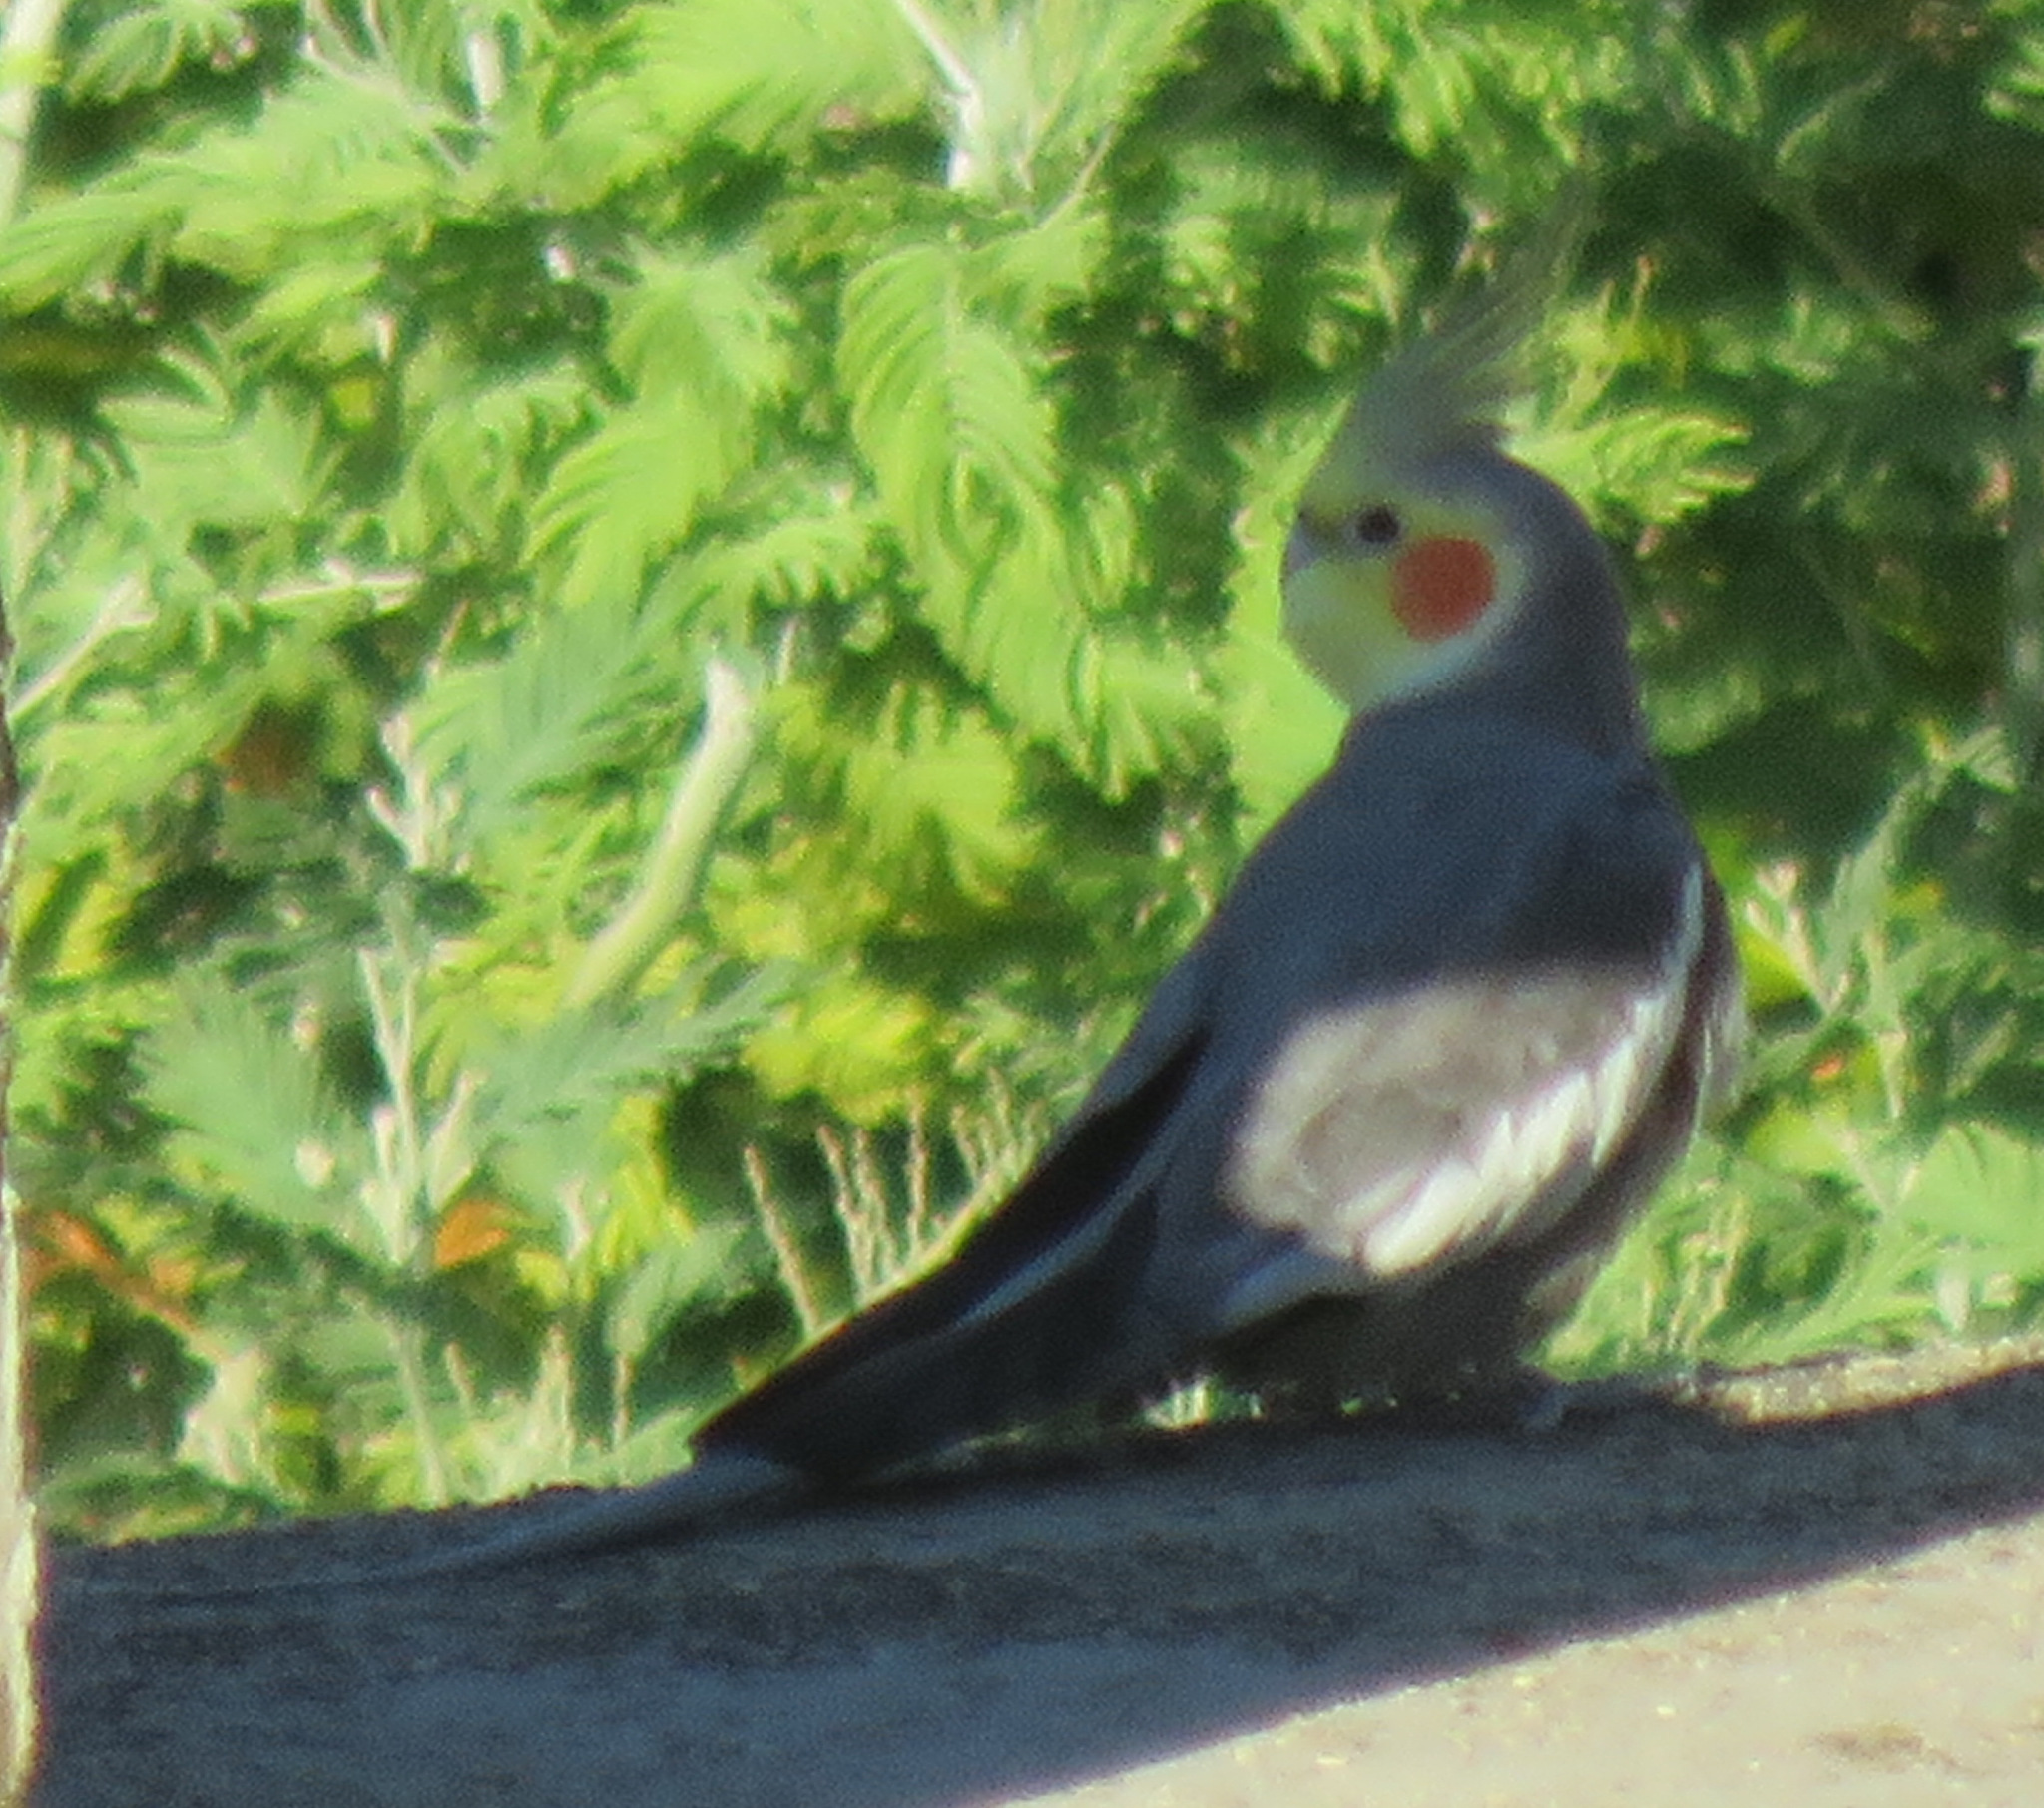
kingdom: Animalia
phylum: Chordata
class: Aves
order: Psittaciformes
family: Psittacidae
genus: Nymphicus
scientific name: Nymphicus hollandicus
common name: Cockatiel
